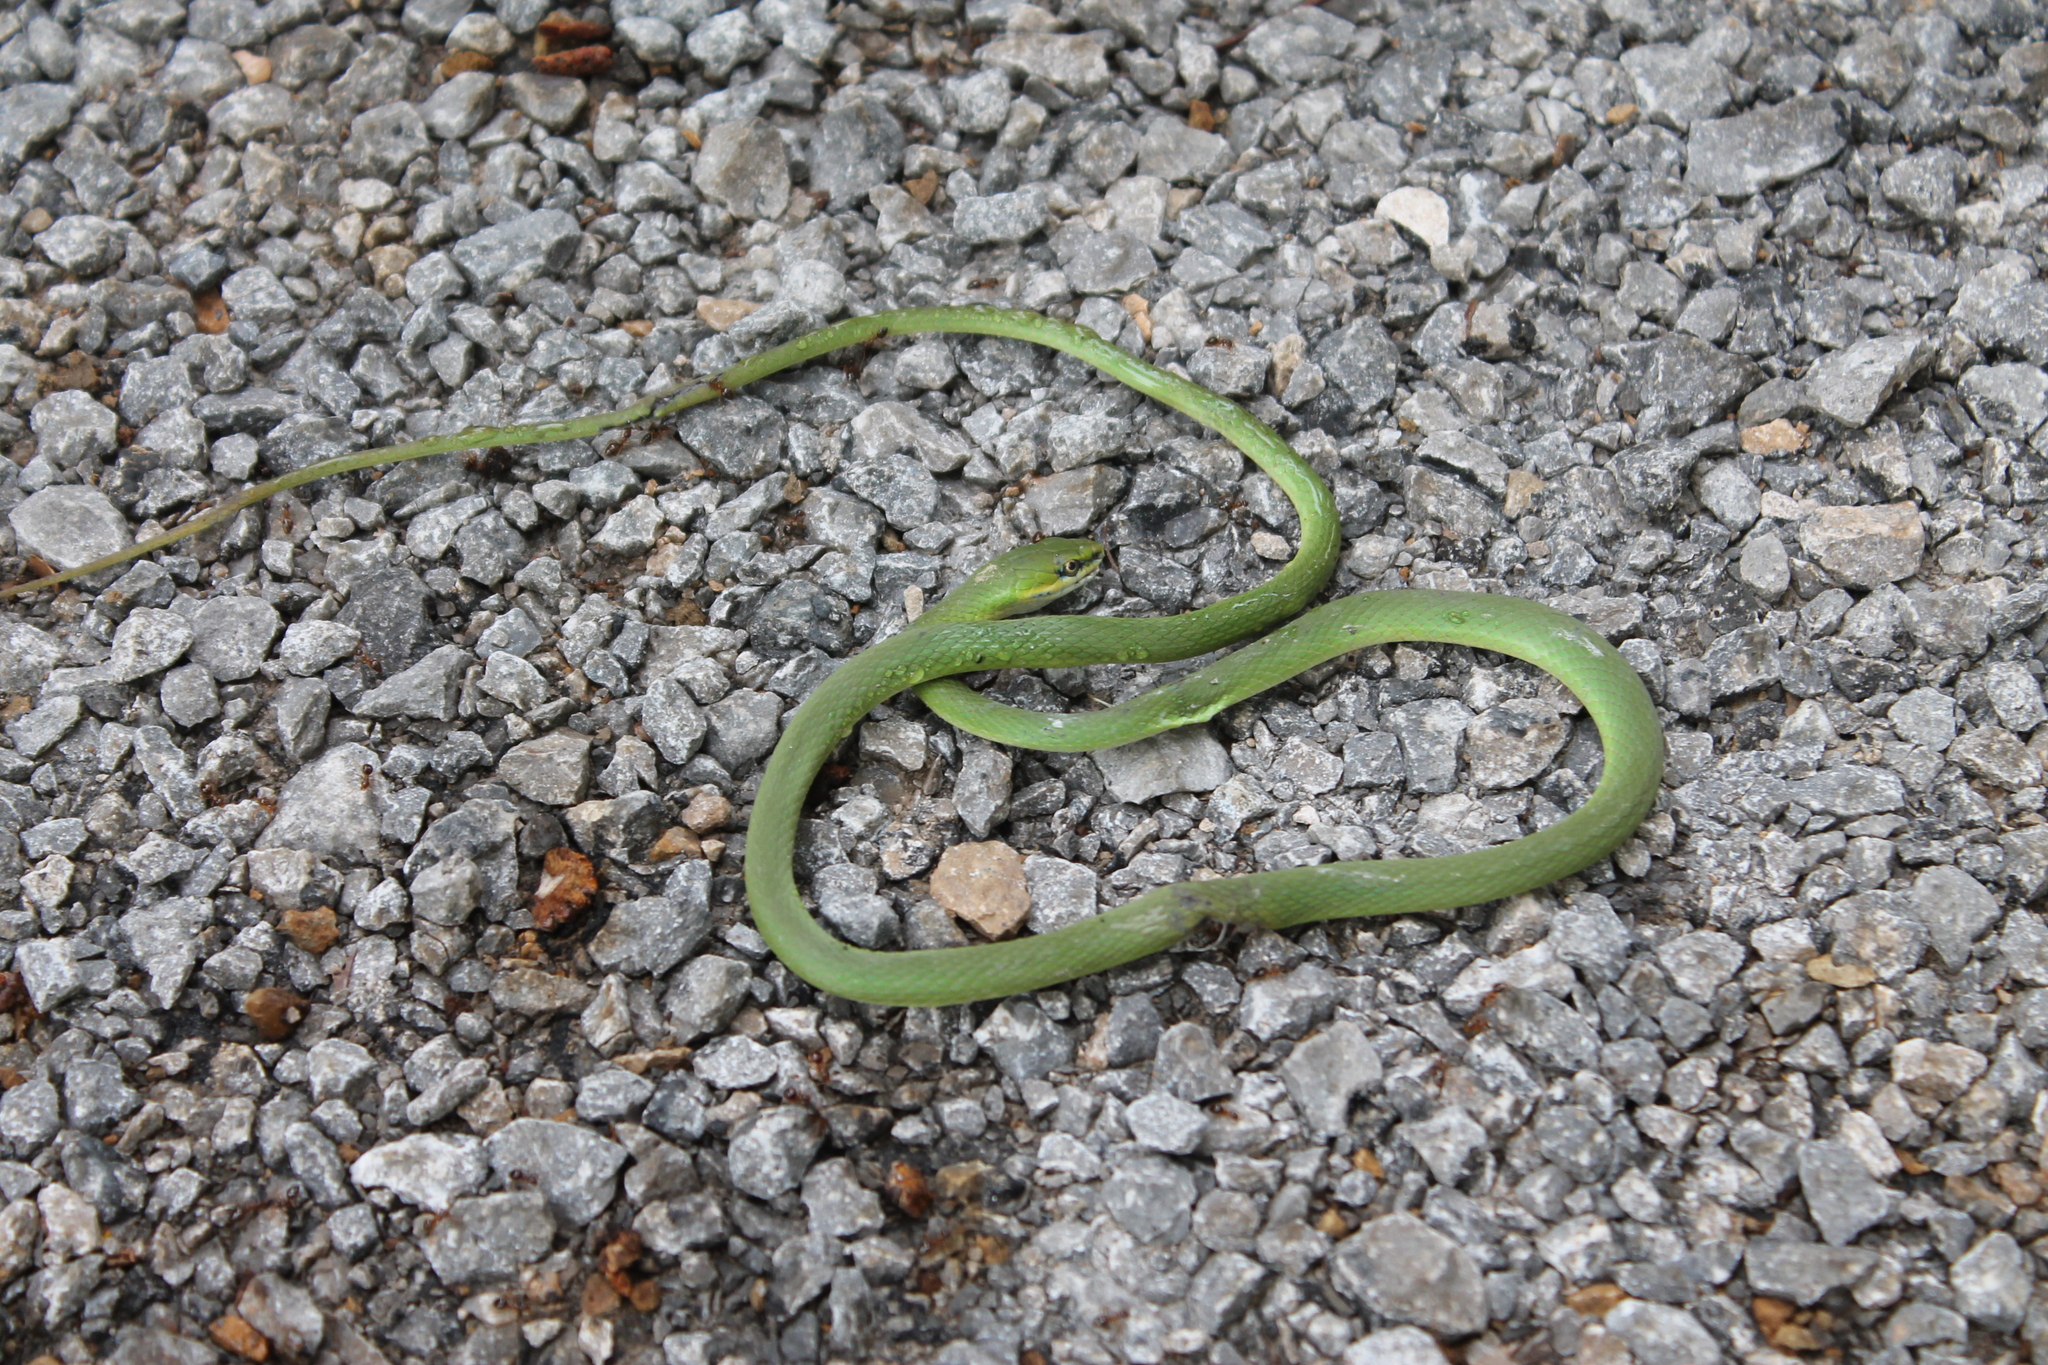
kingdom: Animalia
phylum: Chordata
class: Squamata
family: Colubridae
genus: Opheodrys
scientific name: Opheodrys aestivus
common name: Rough greensnake
